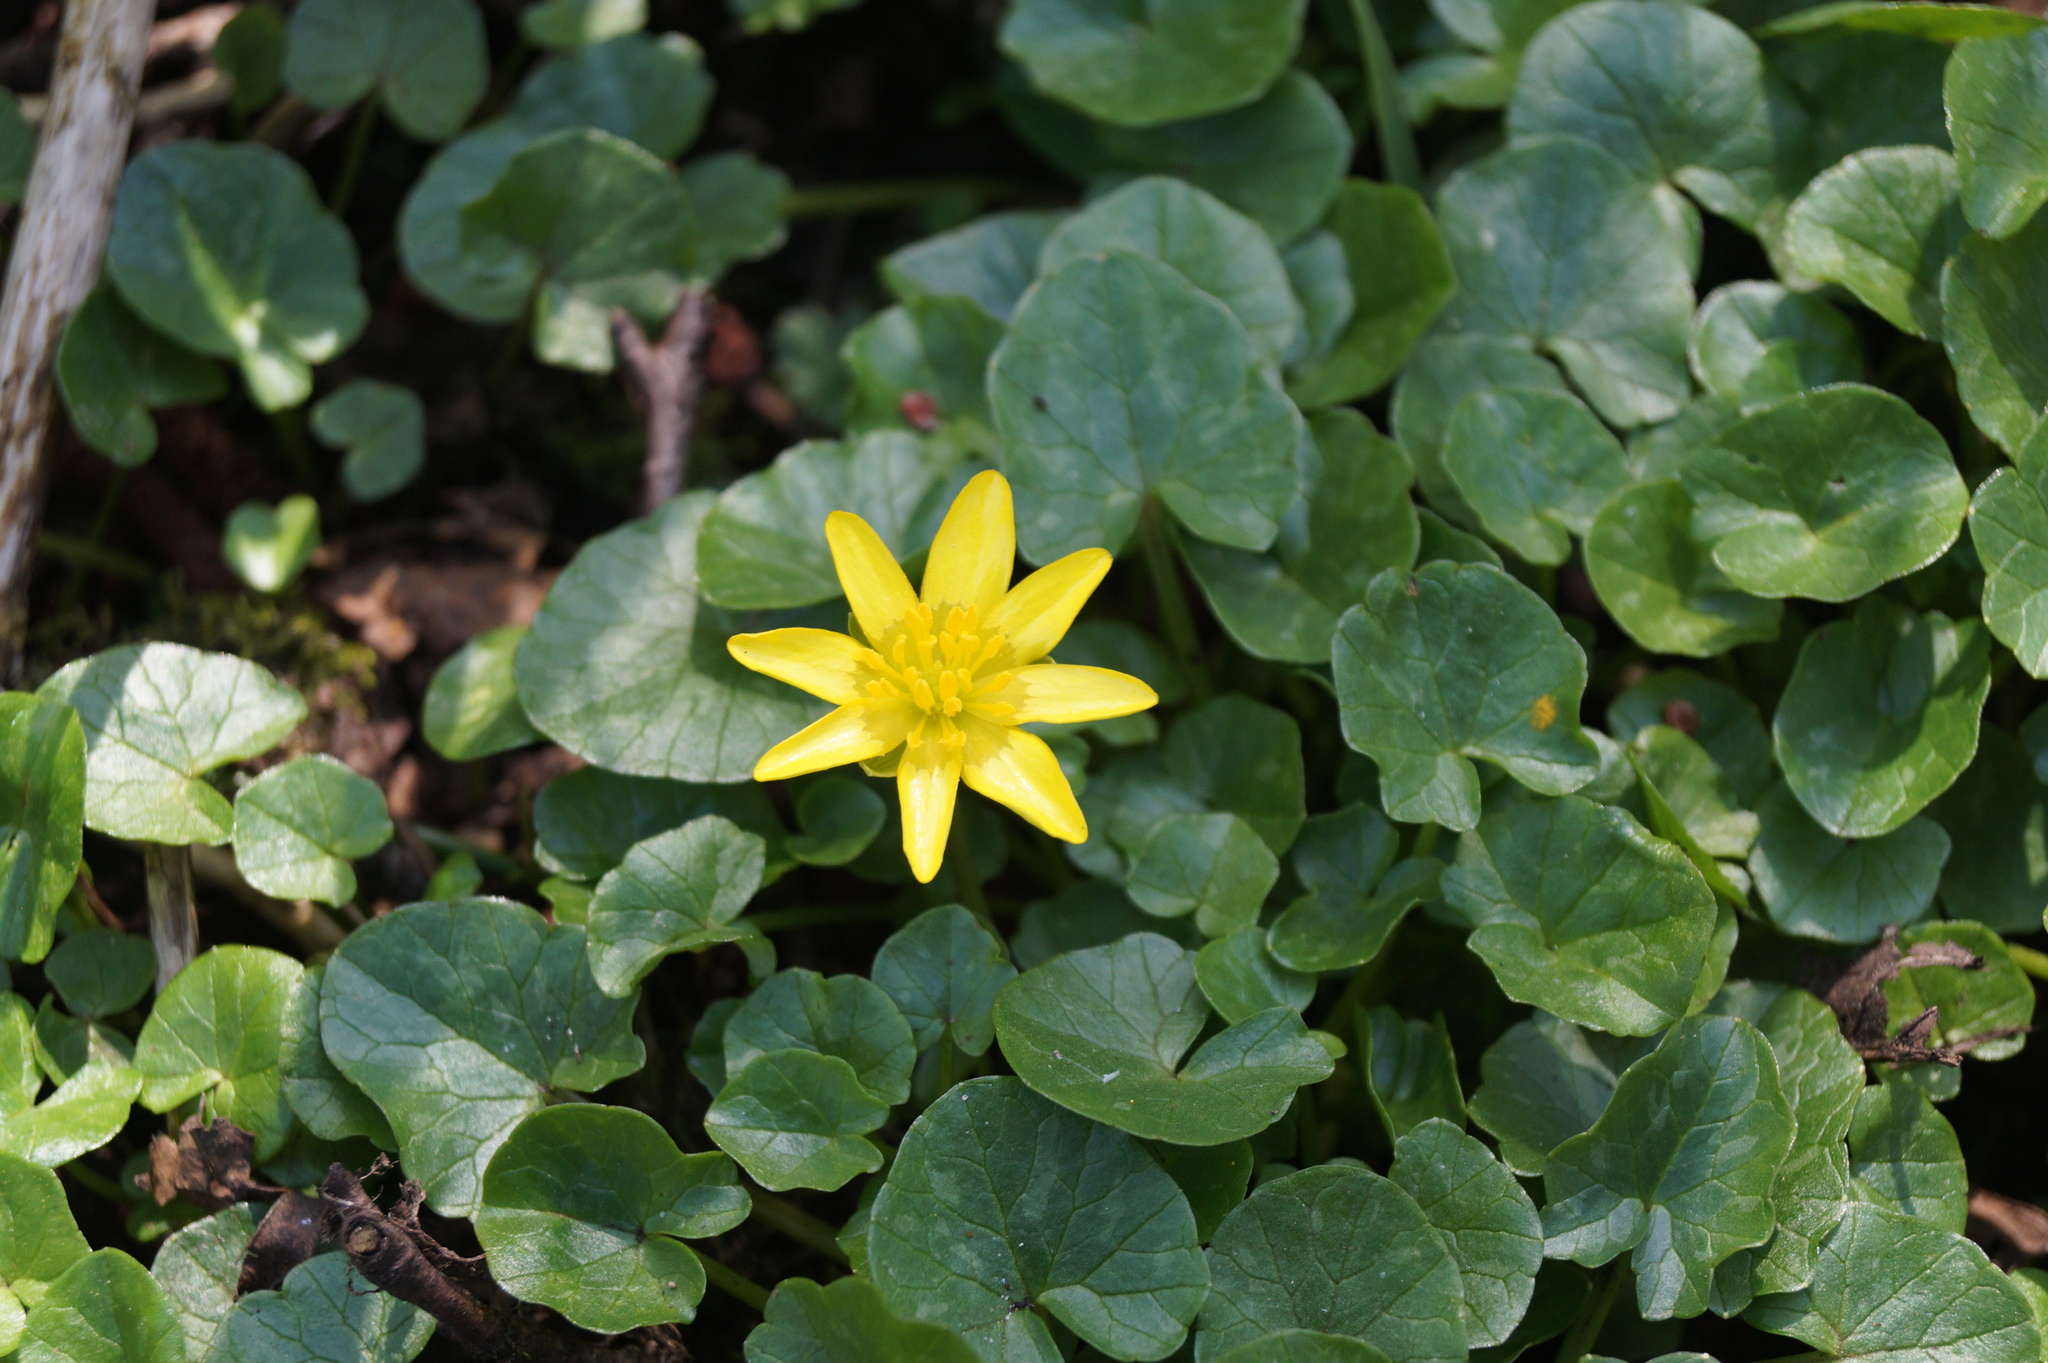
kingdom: Plantae
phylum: Tracheophyta
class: Magnoliopsida
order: Ranunculales
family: Ranunculaceae
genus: Ficaria
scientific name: Ficaria verna
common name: Lesser celandine
